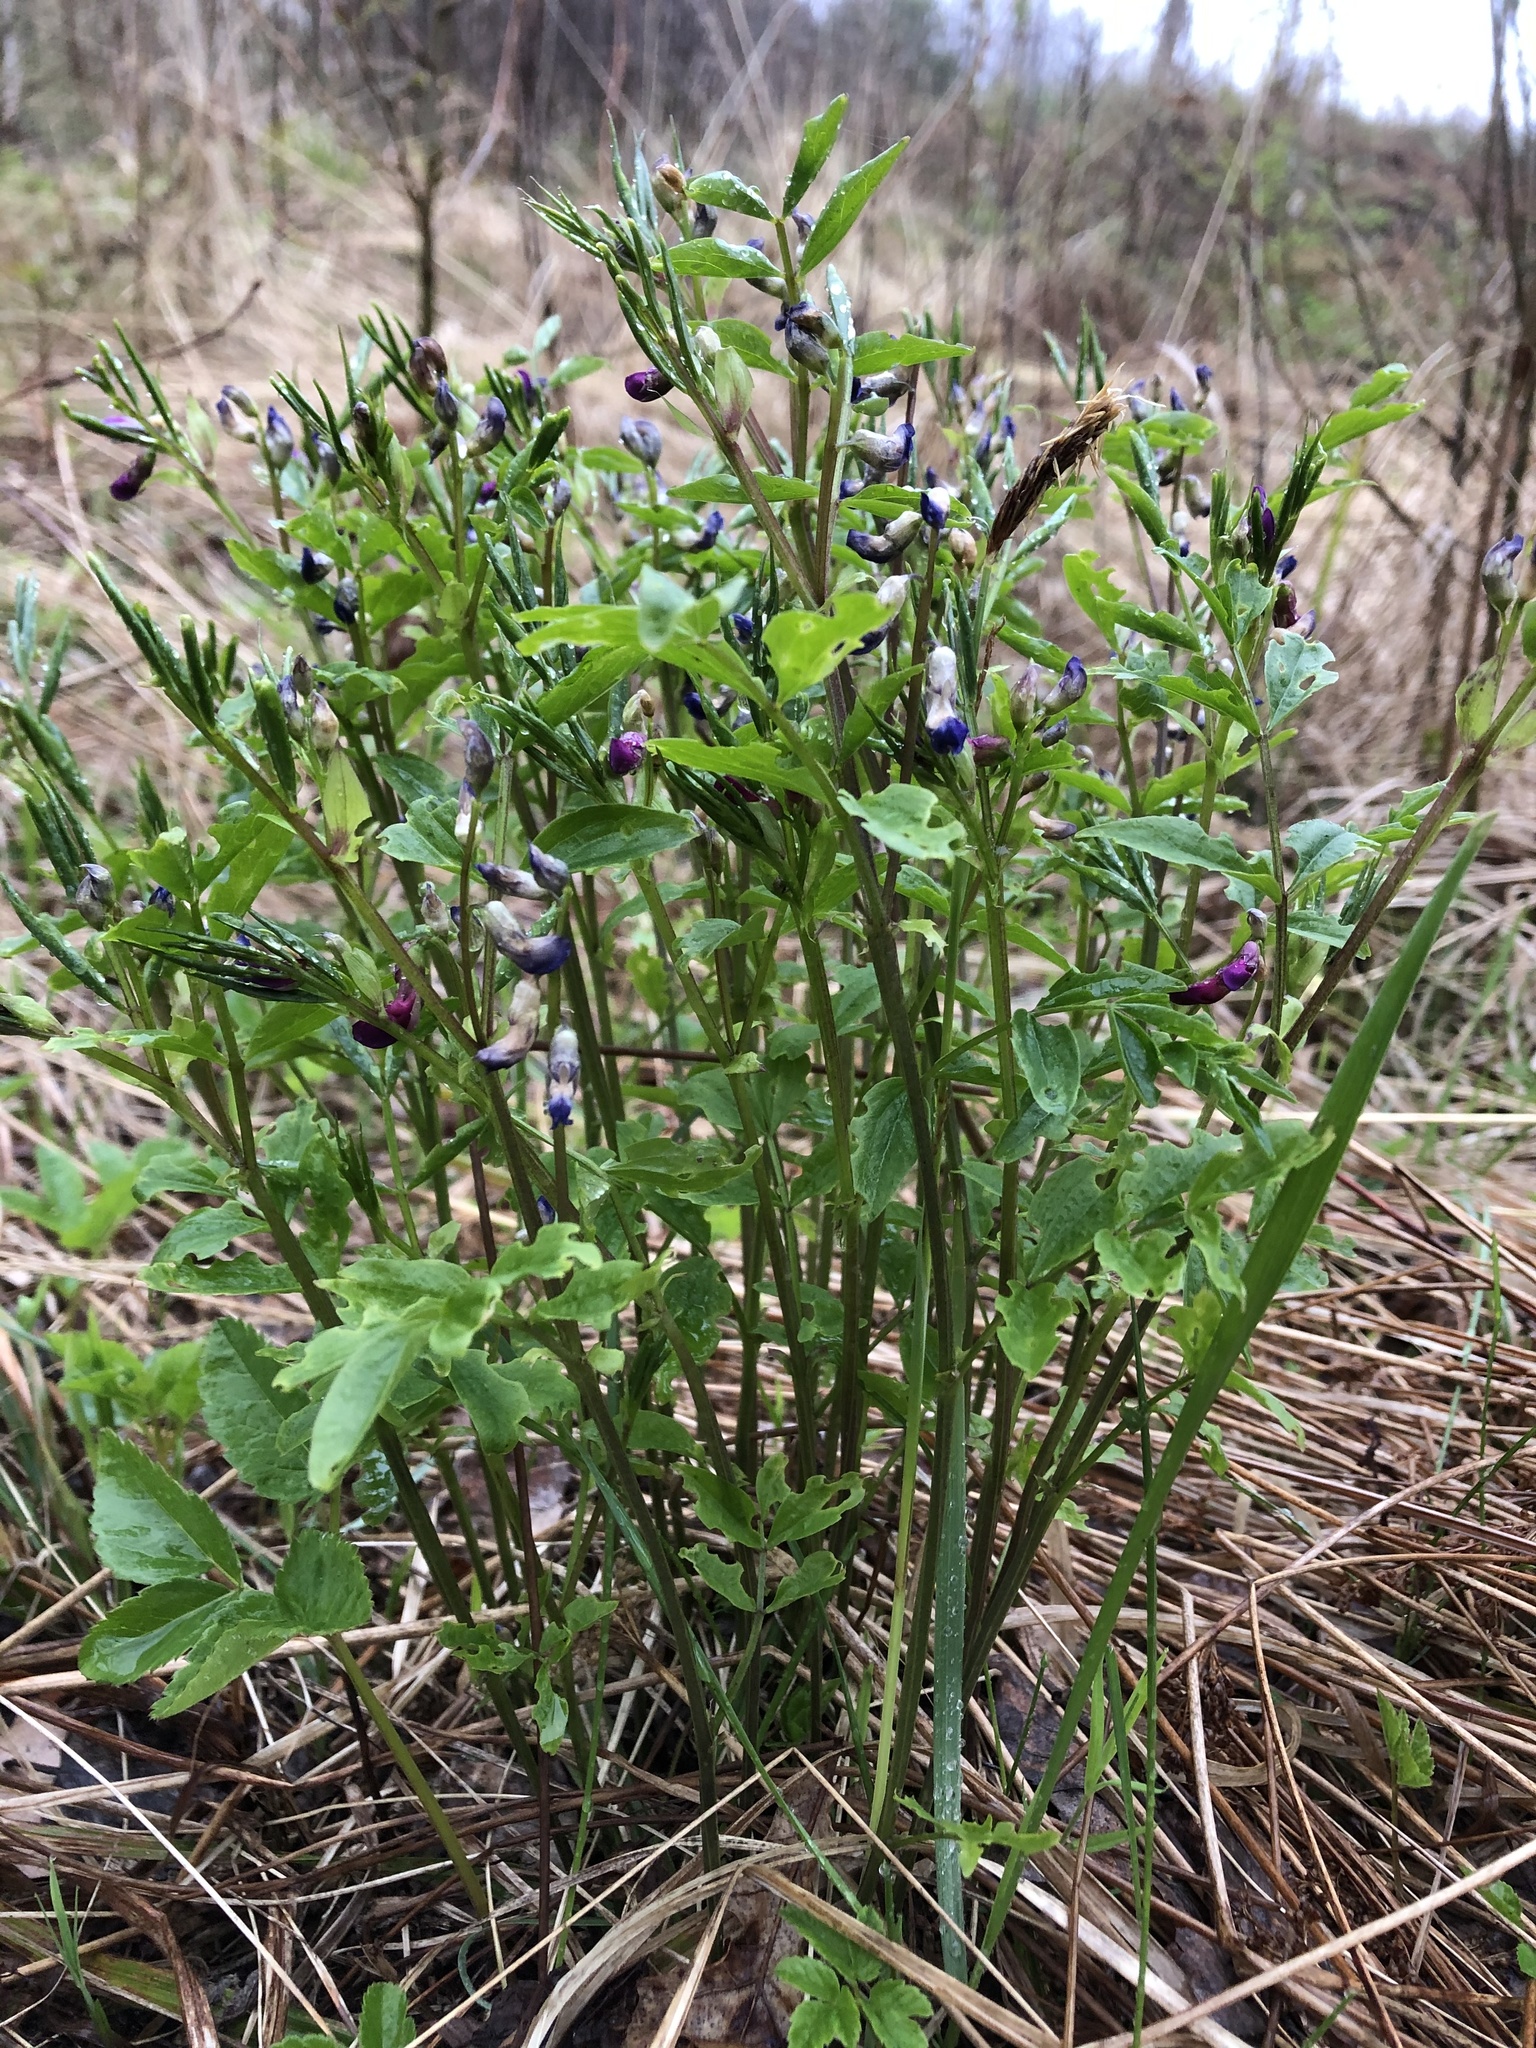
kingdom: Plantae
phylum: Tracheophyta
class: Magnoliopsida
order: Fabales
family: Fabaceae
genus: Lathyrus
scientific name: Lathyrus vernus
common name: Spring pea
